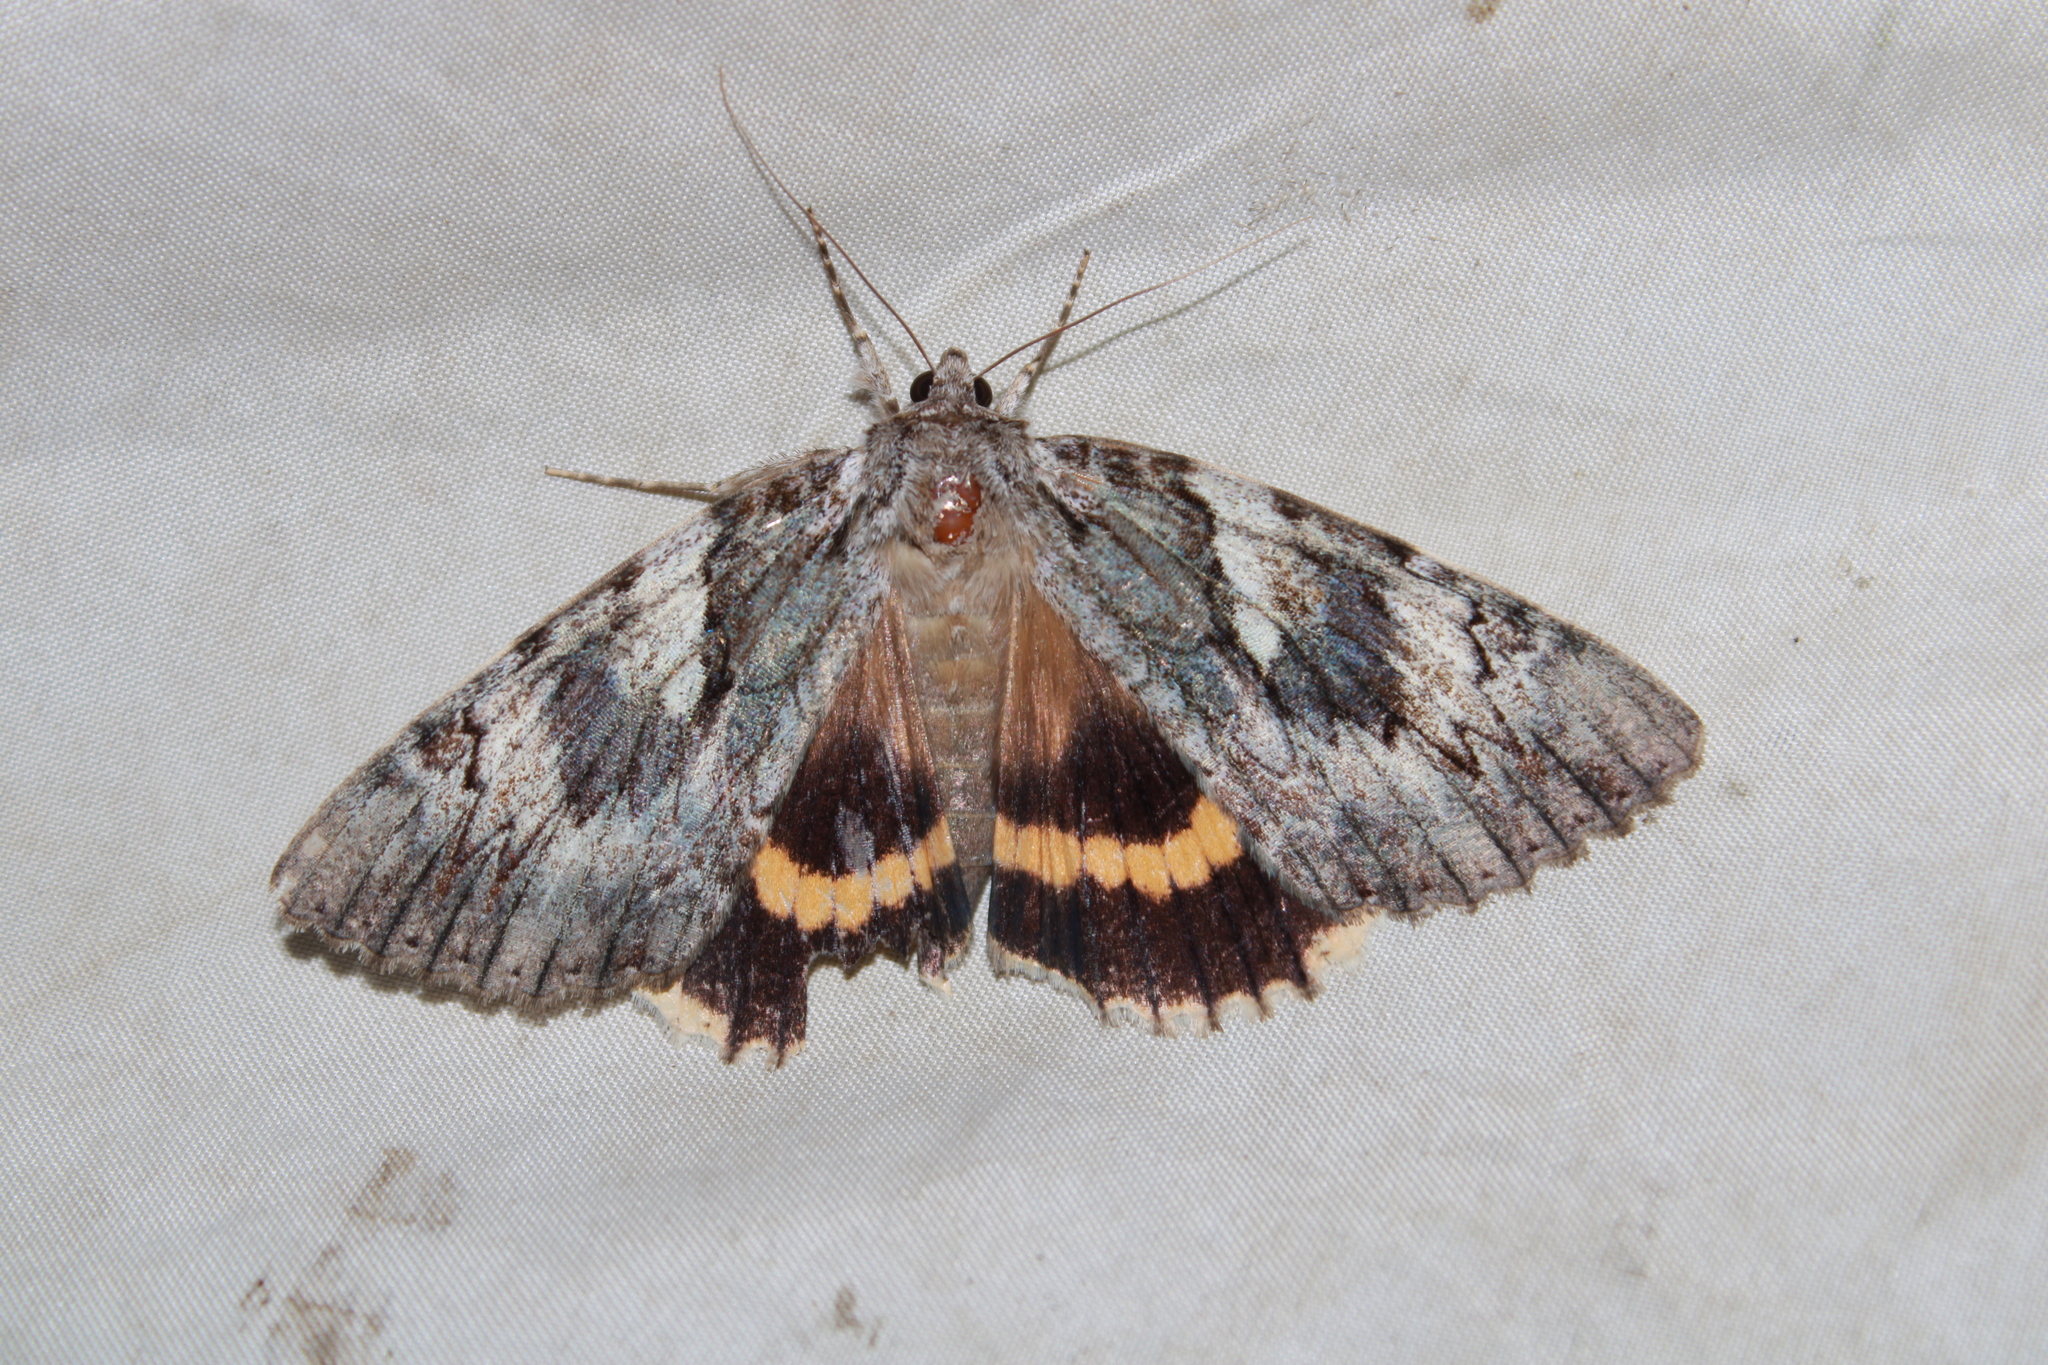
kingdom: Animalia
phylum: Arthropoda
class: Insecta
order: Lepidoptera
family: Erebidae
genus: Catocala
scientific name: Catocala cerogama
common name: Yellow banded underwing
